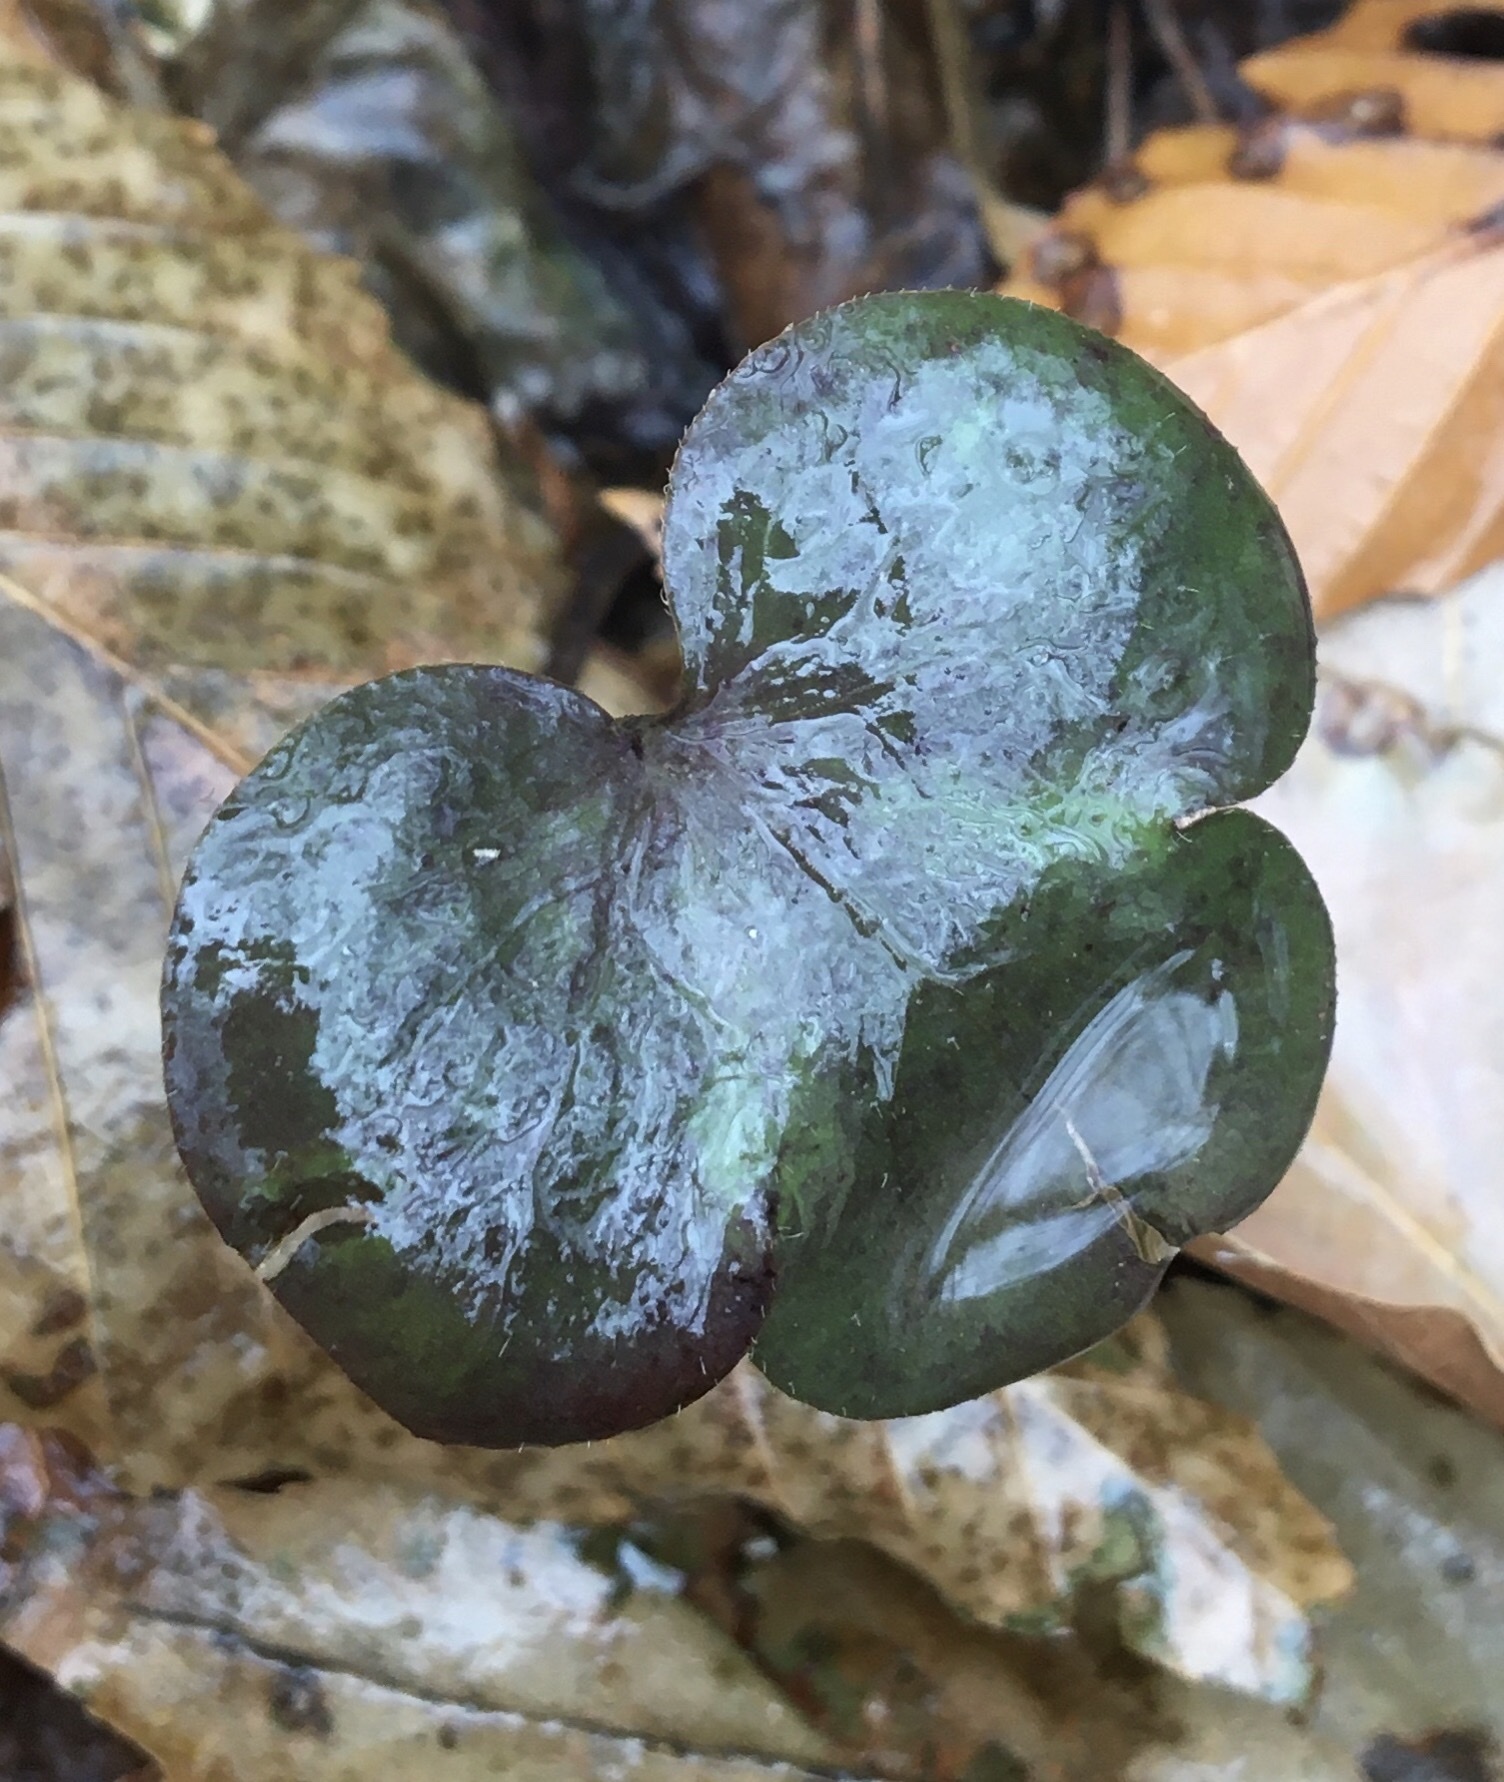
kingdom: Plantae
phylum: Tracheophyta
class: Magnoliopsida
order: Ranunculales
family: Ranunculaceae
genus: Hepatica
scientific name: Hepatica americana
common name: American hepatica
